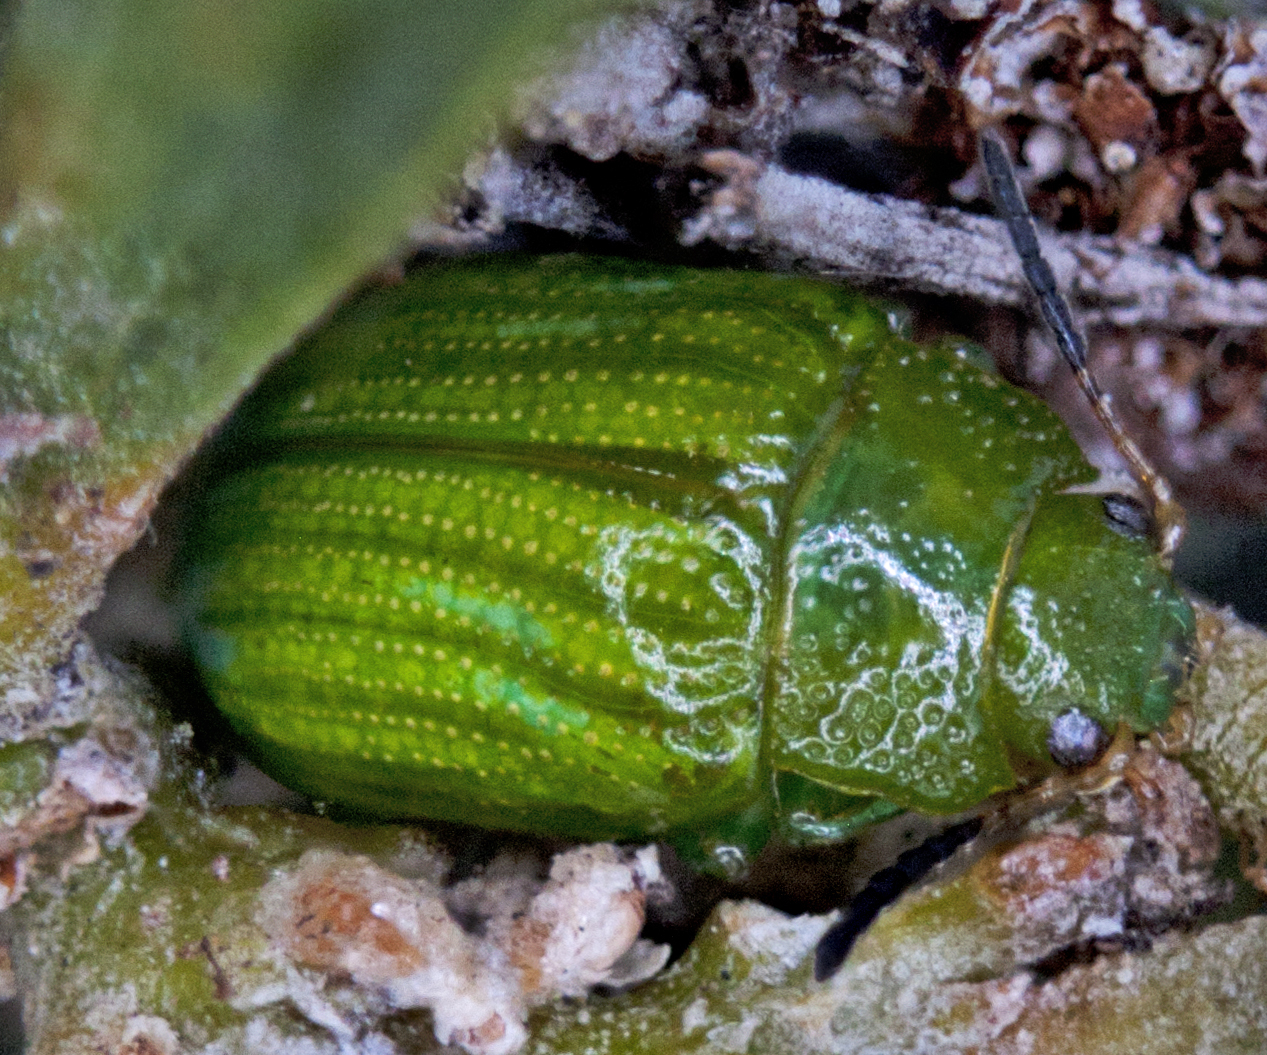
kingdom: Animalia
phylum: Arthropoda
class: Insecta
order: Coleoptera
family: Chrysomelidae
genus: Calomela
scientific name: Calomela
